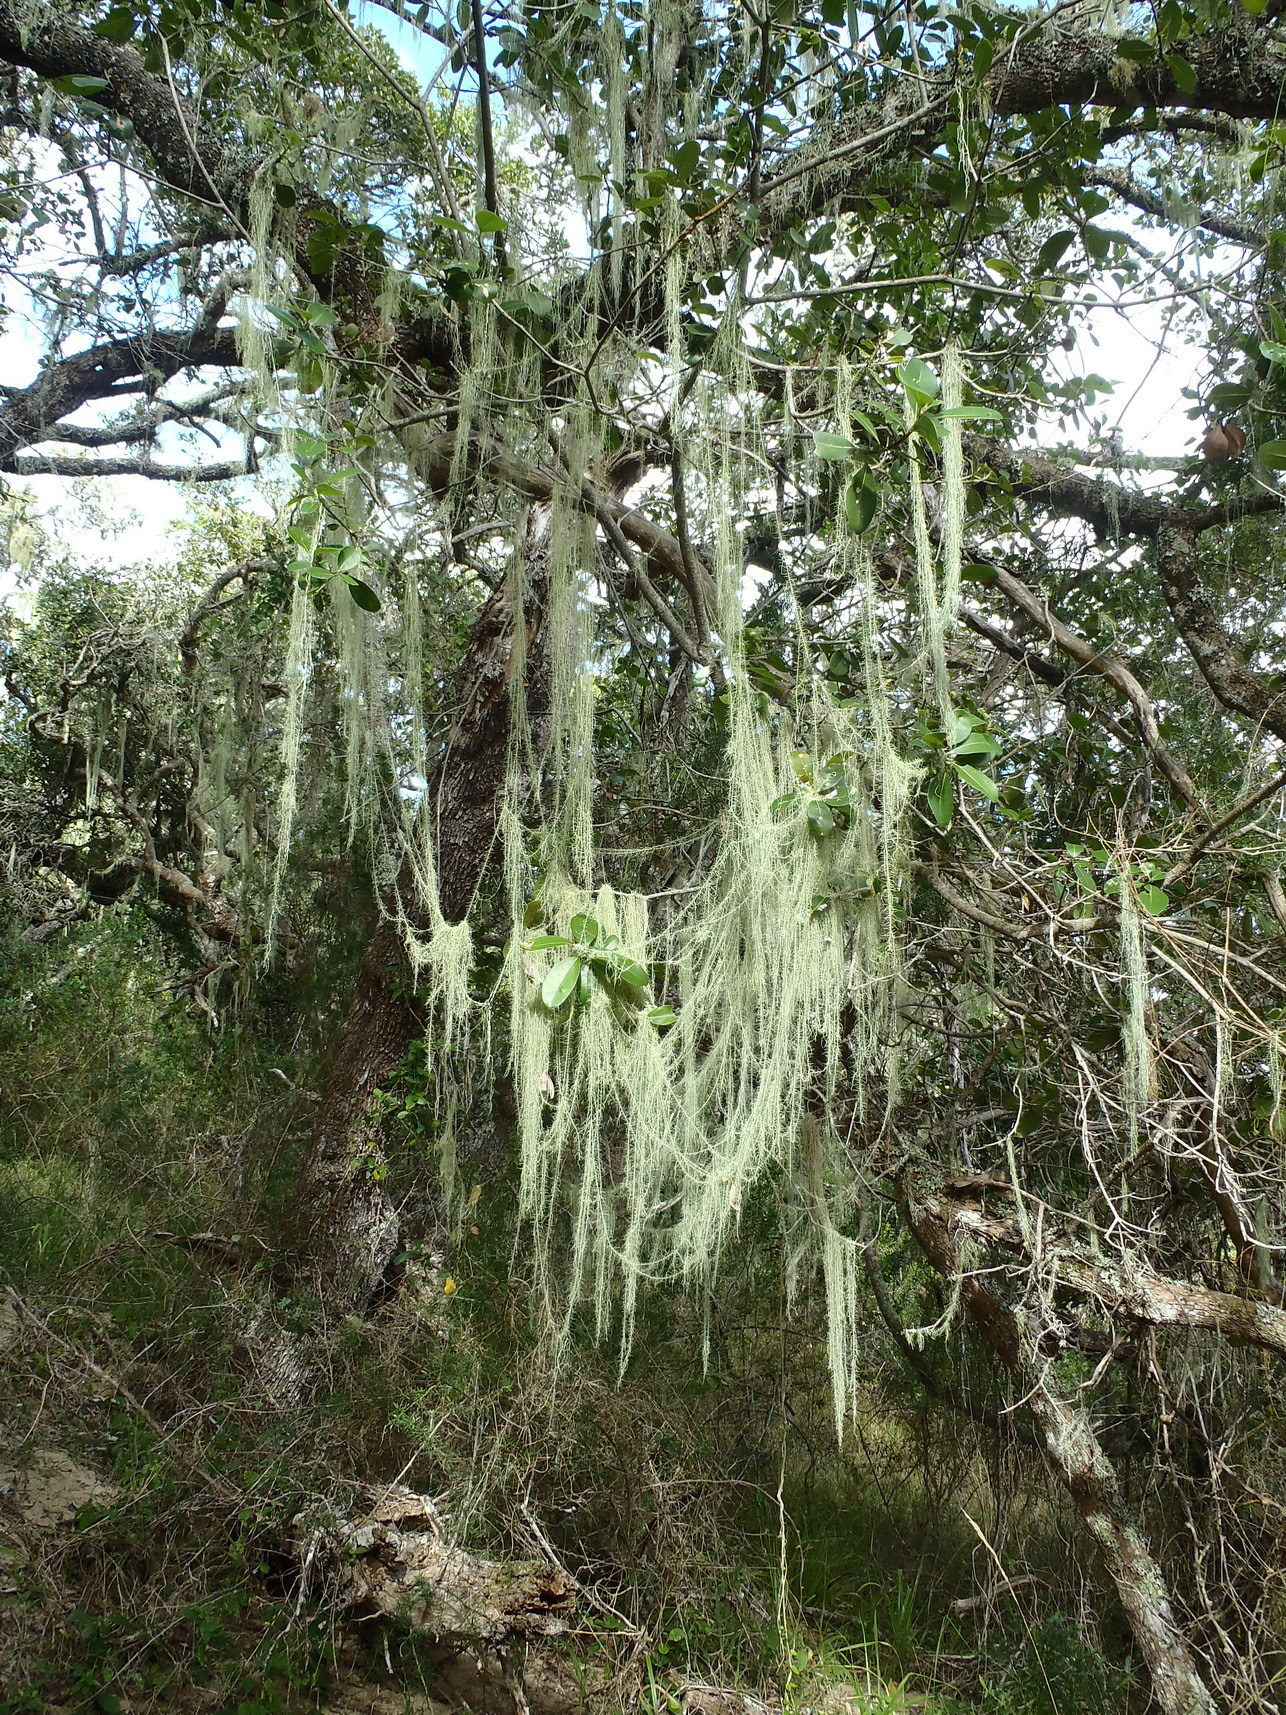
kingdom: Fungi
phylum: Ascomycota
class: Lecanoromycetes
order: Lecanorales
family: Parmeliaceae
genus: Dolichousnea
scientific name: Dolichousnea trichodeoides
